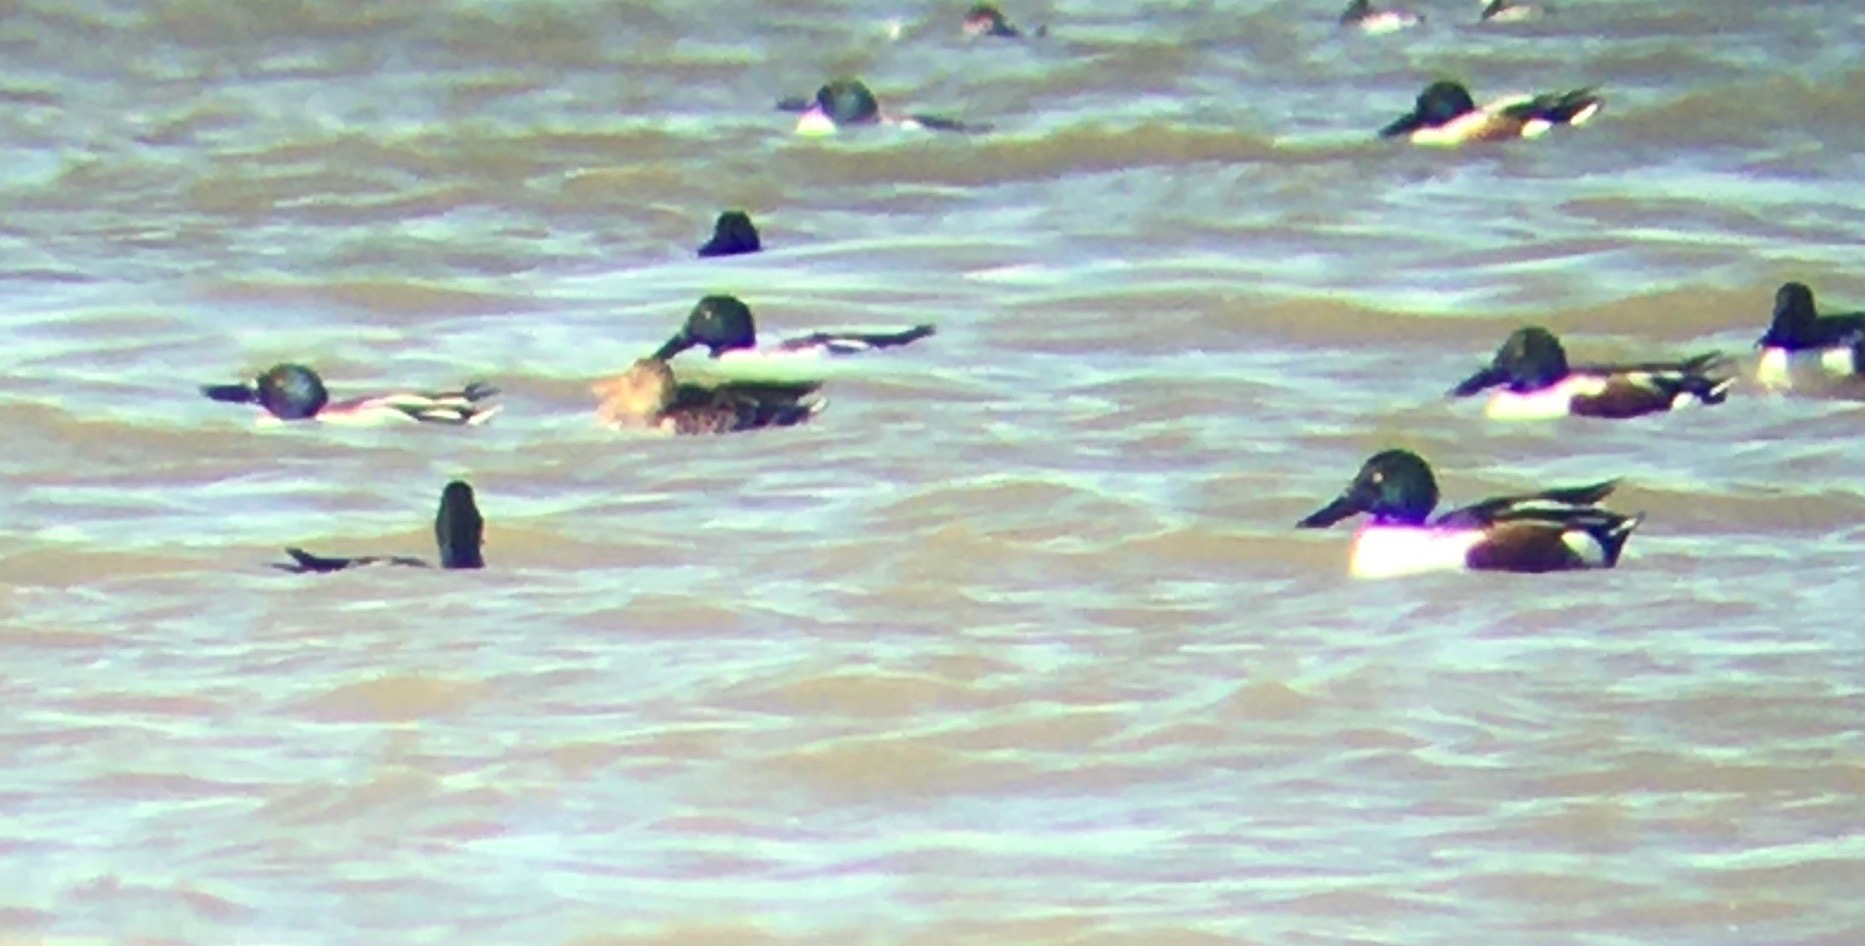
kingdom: Animalia
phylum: Chordata
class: Aves
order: Anseriformes
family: Anatidae
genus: Spatula
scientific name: Spatula clypeata
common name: Northern shoveler
